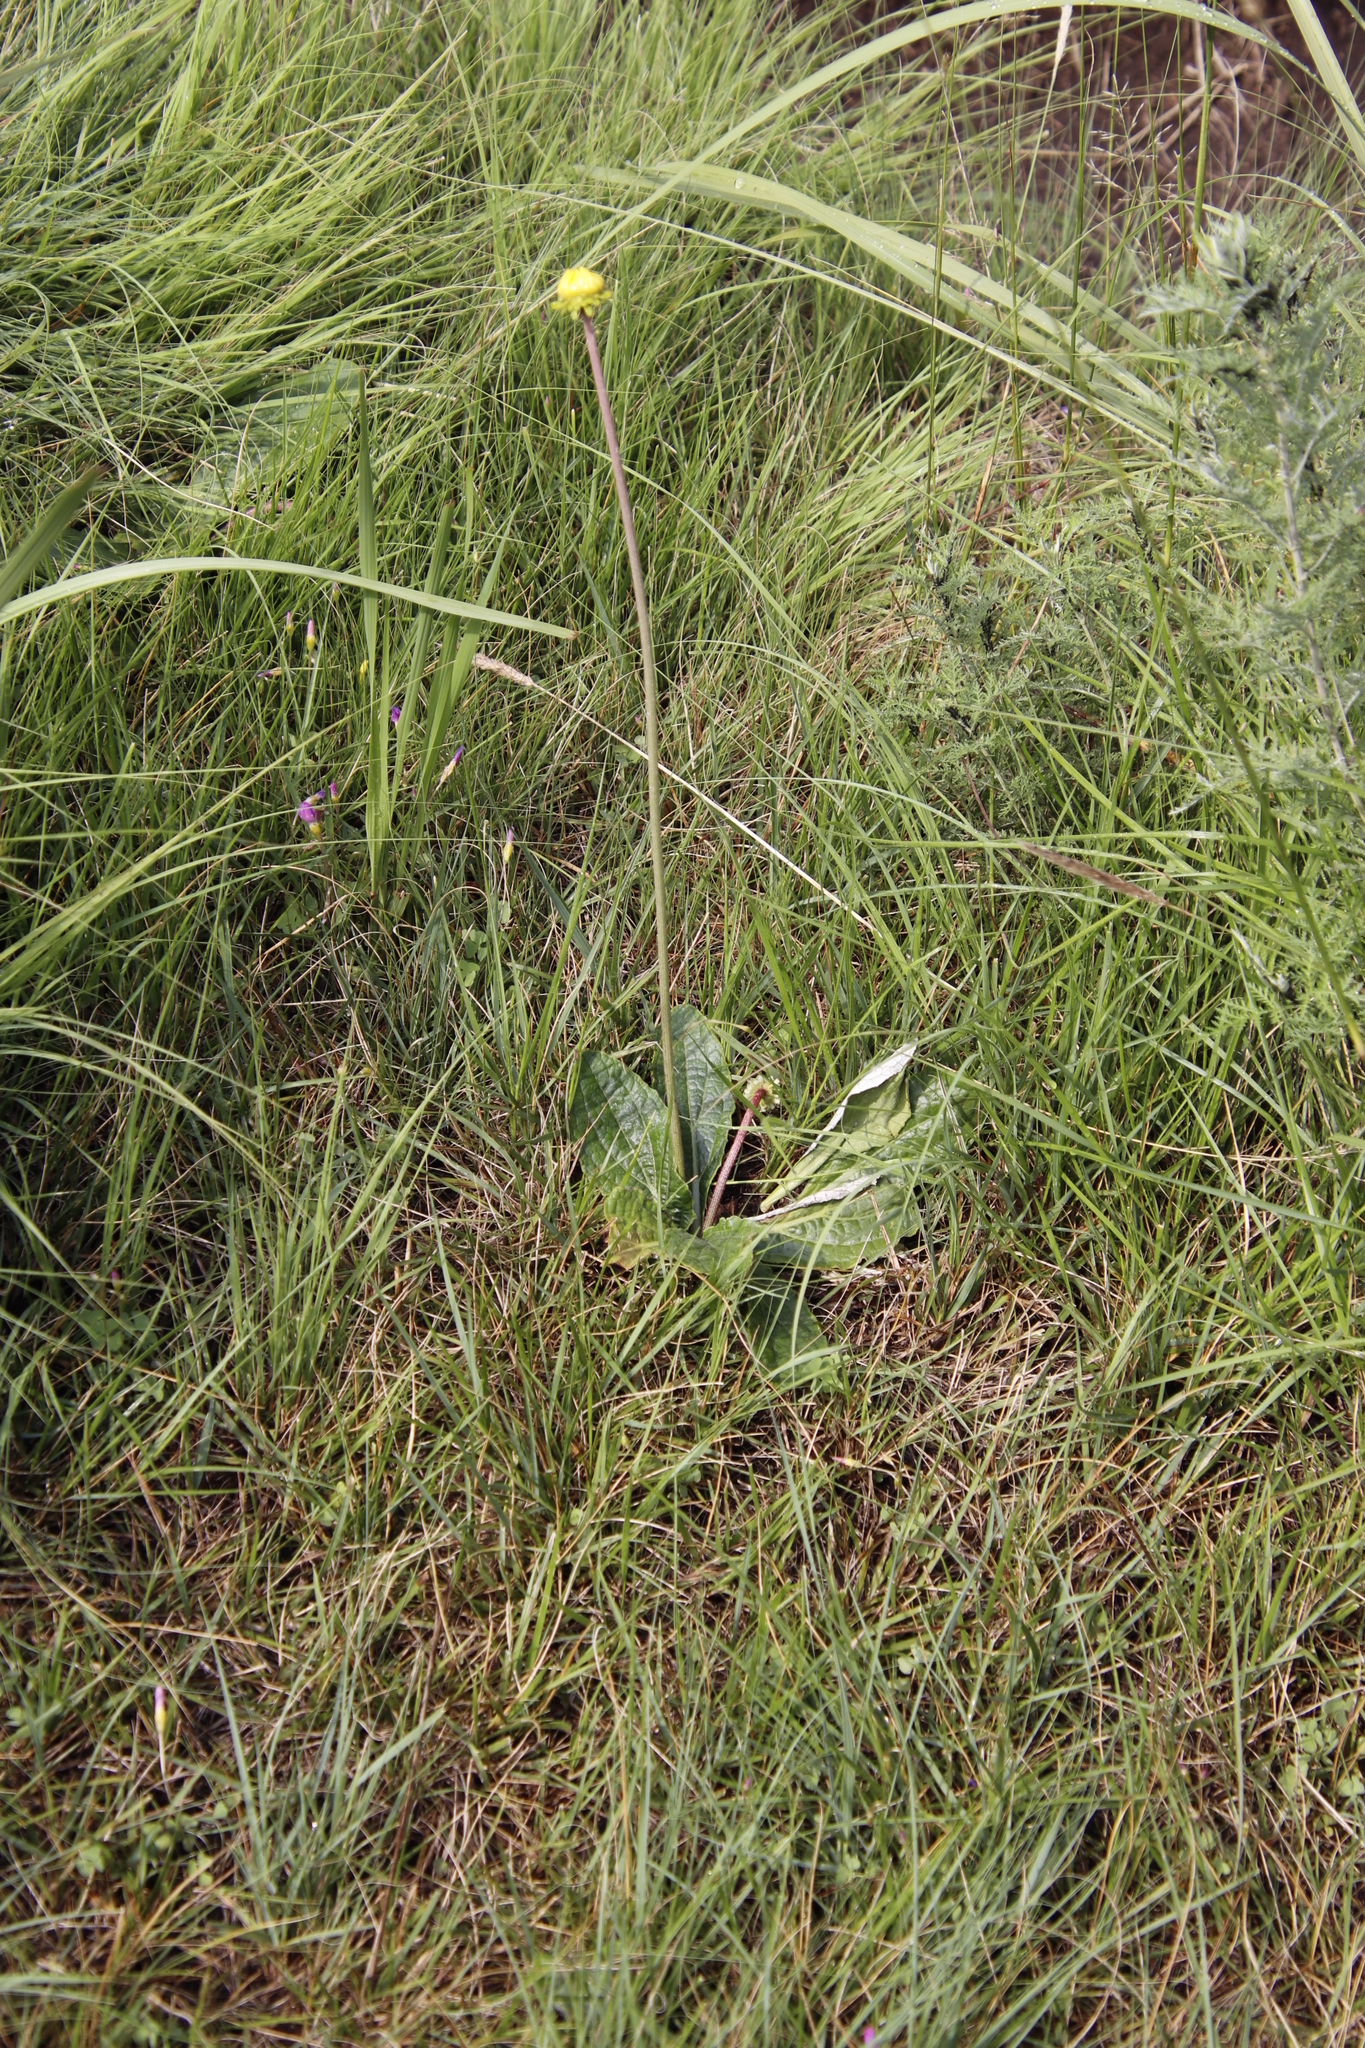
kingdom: Plantae
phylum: Tracheophyta
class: Magnoliopsida
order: Asterales
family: Asteraceae
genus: Haplocarpha
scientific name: Haplocarpha scaposa
